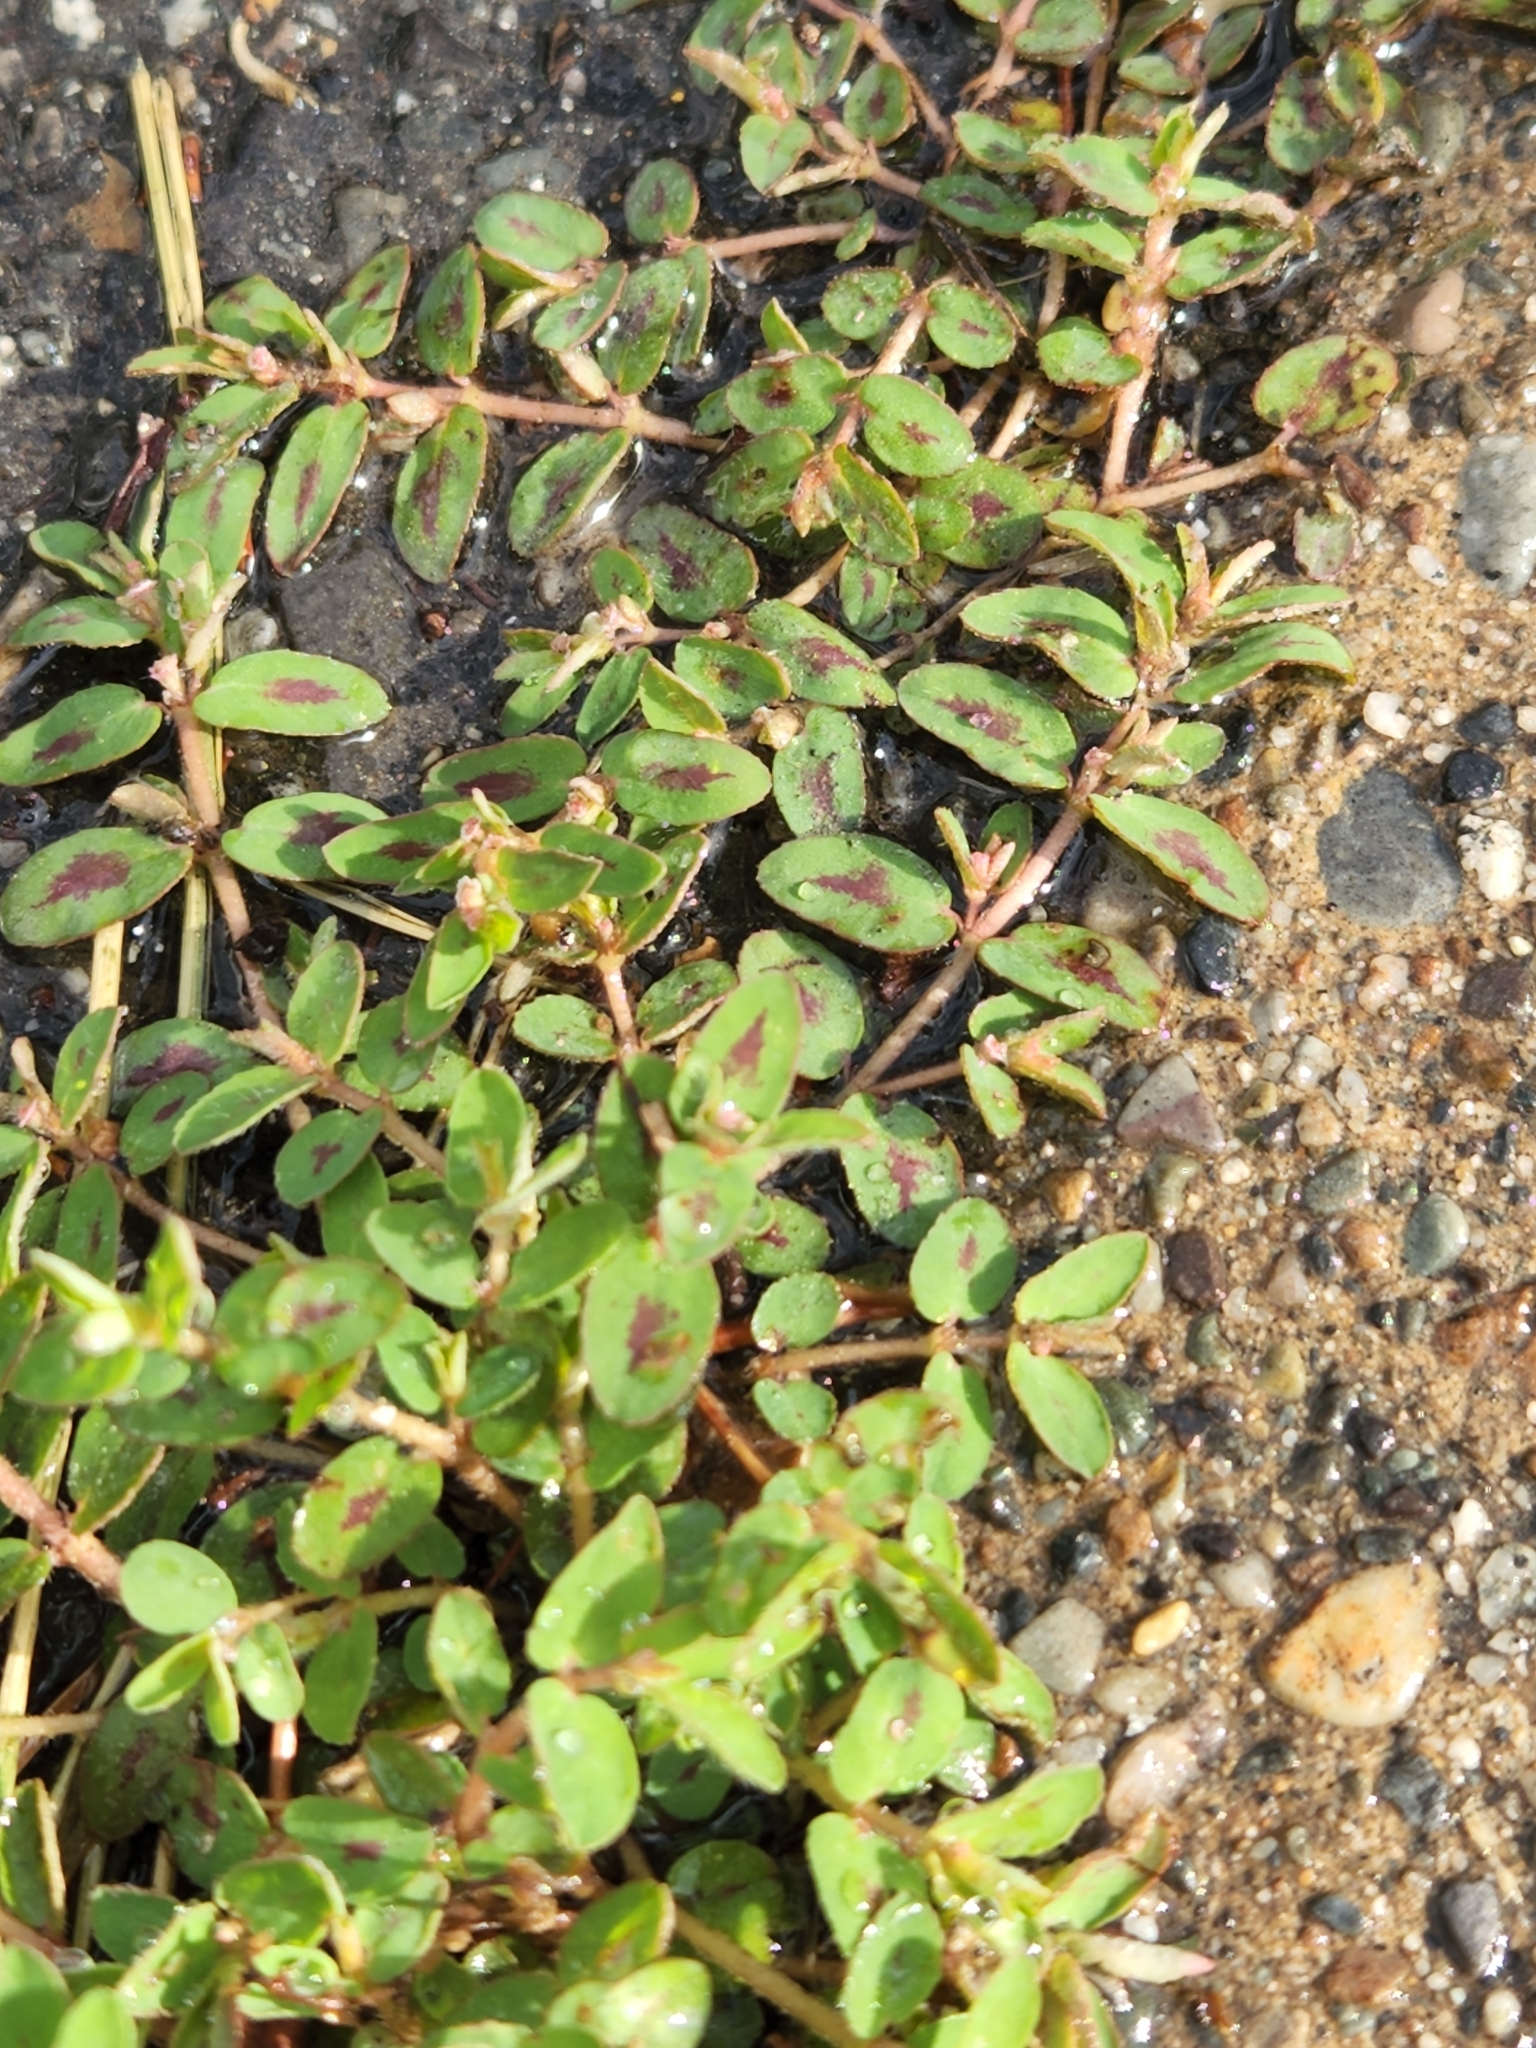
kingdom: Plantae
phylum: Tracheophyta
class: Magnoliopsida
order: Malpighiales
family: Euphorbiaceae
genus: Euphorbia
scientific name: Euphorbia maculata
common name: Spotted spurge
